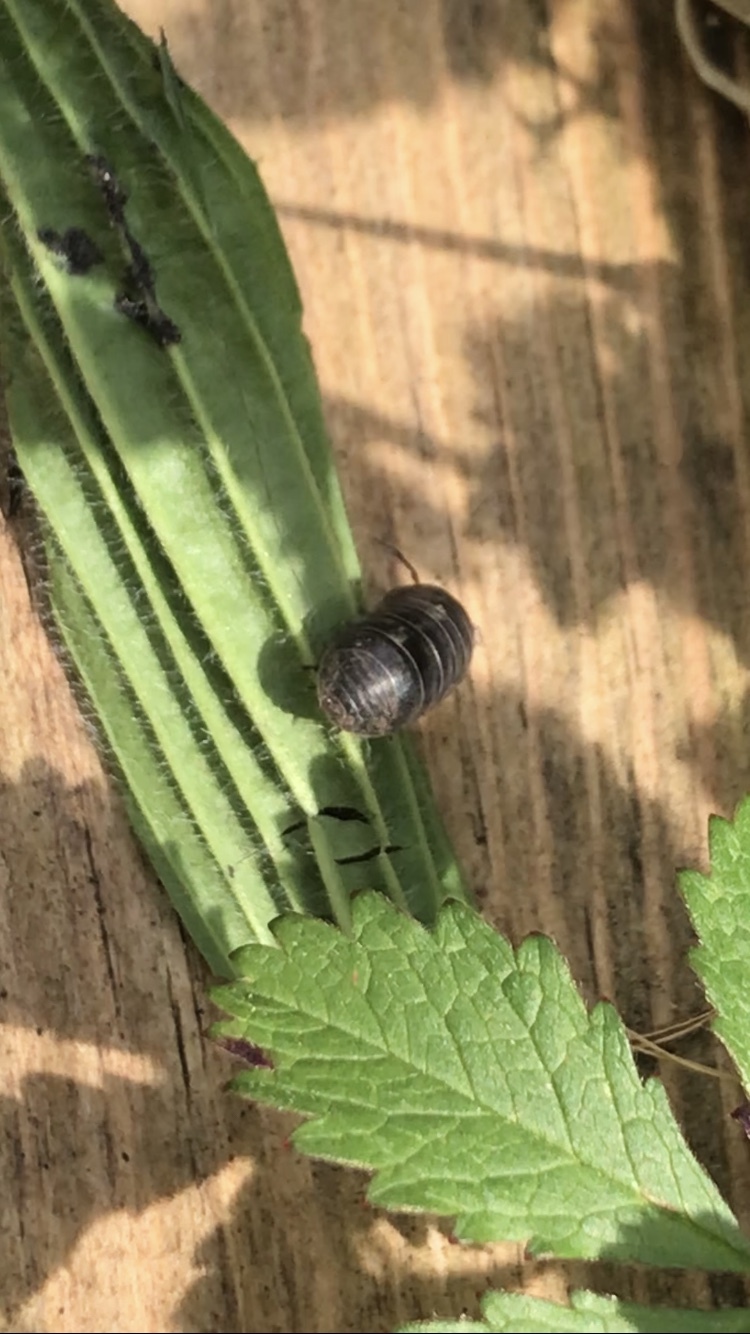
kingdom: Animalia
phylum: Arthropoda
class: Malacostraca
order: Isopoda
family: Armadillidiidae
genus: Armadillidium
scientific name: Armadillidium vulgare
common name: Common pill woodlouse
